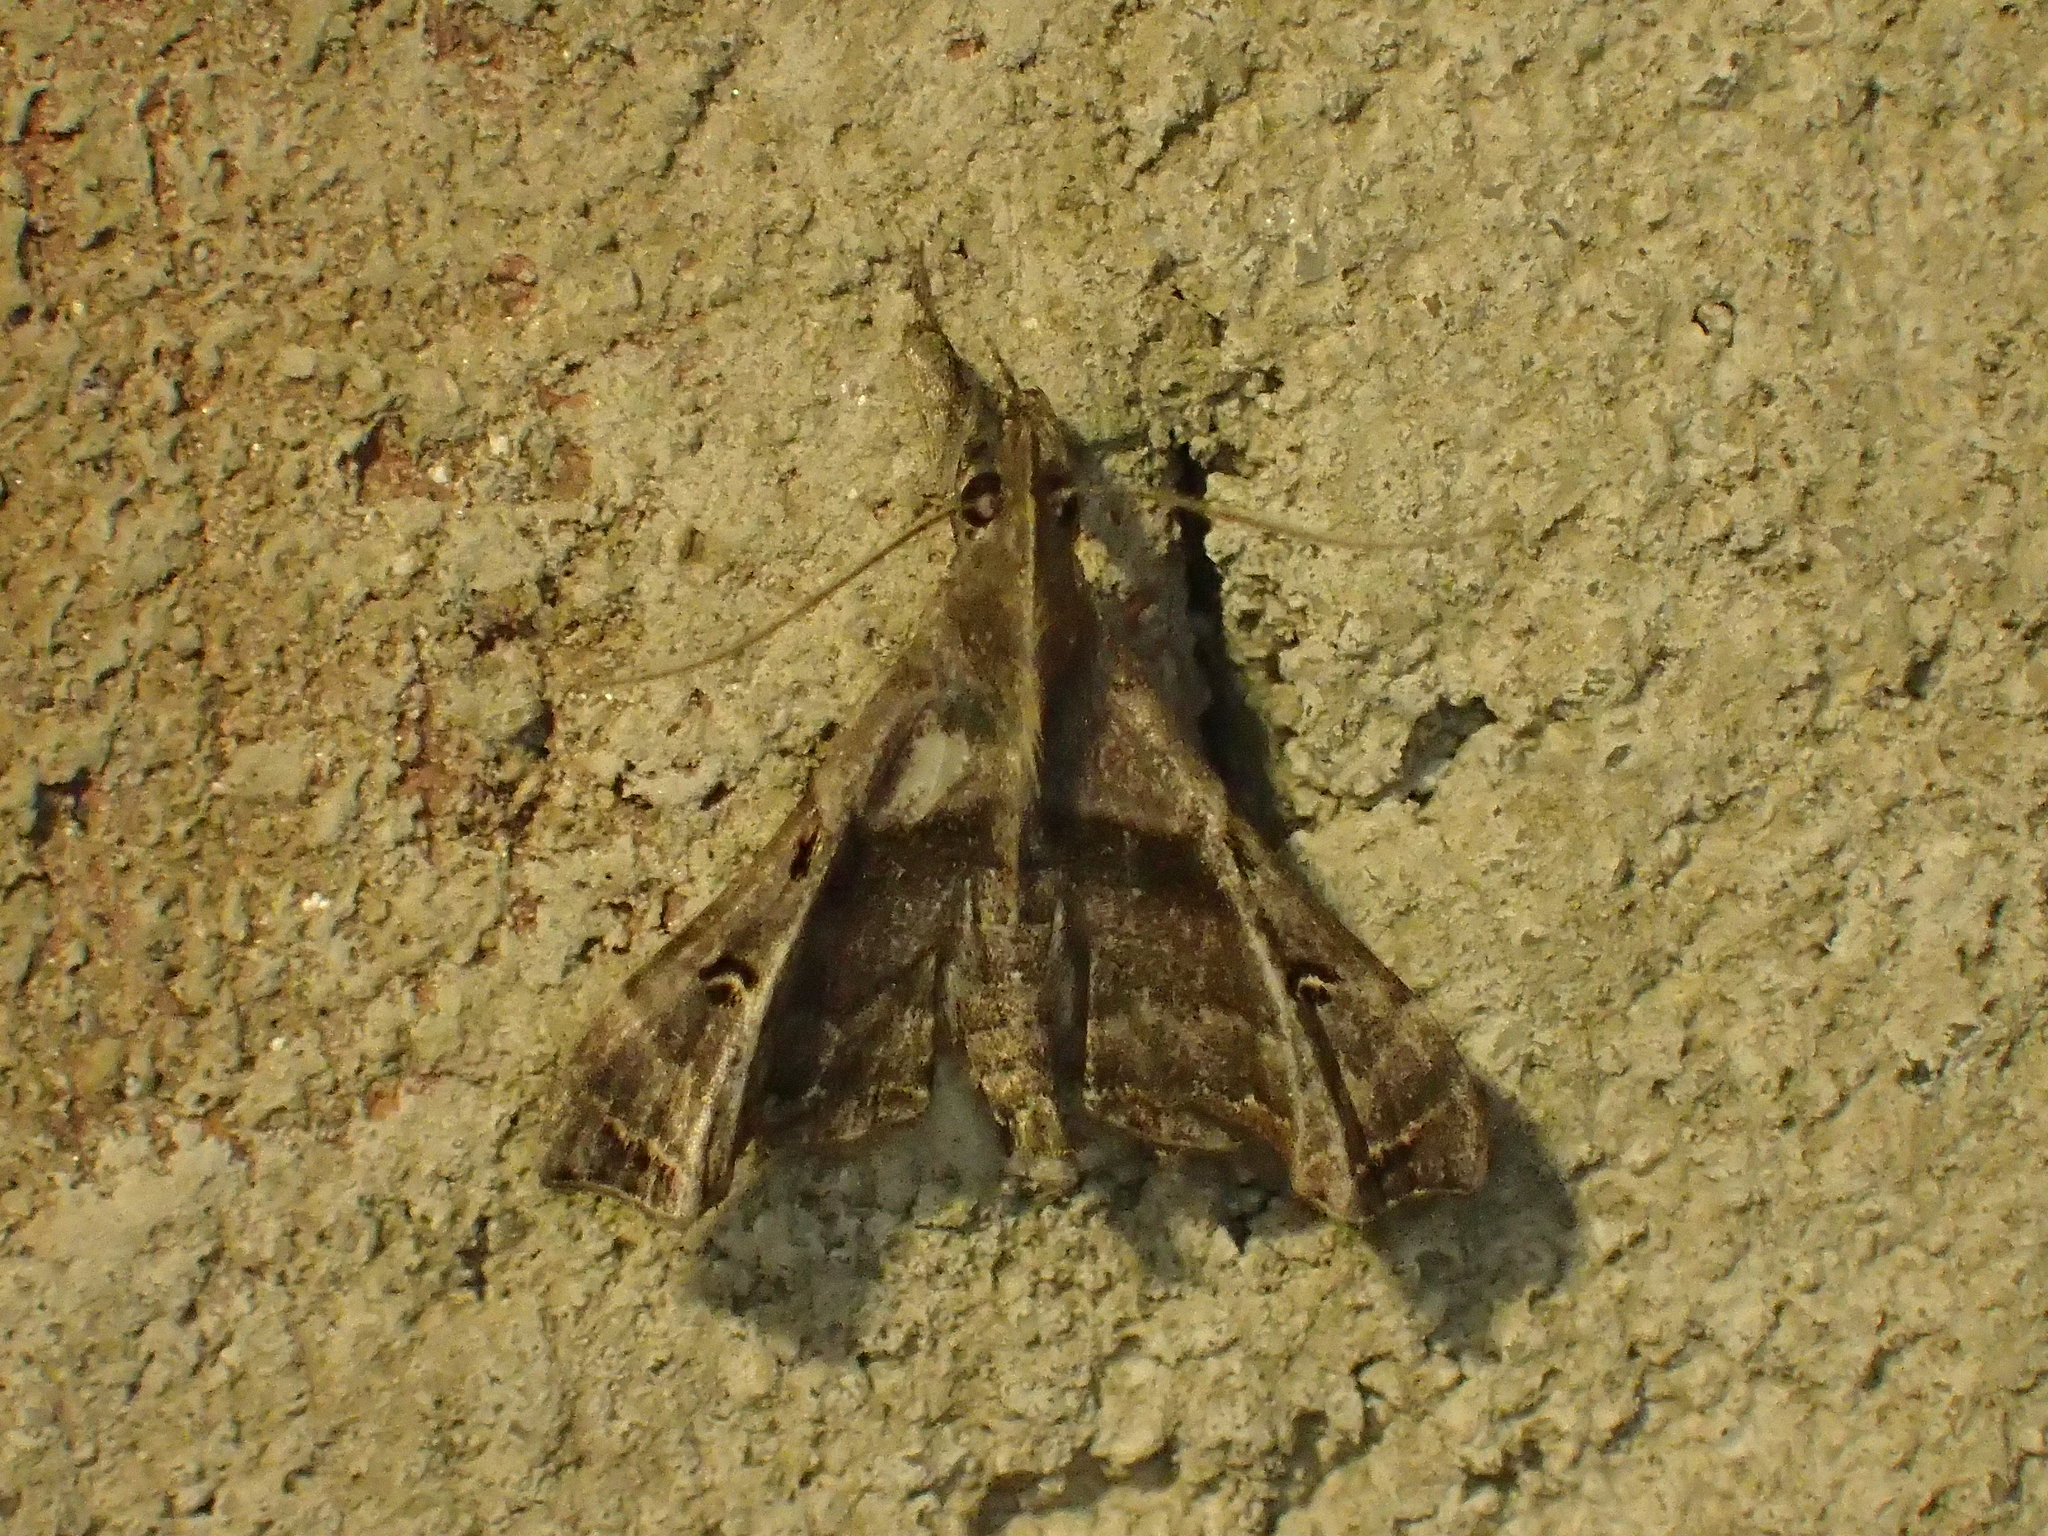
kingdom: Animalia
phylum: Arthropoda
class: Insecta
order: Lepidoptera
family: Erebidae
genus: Palthis
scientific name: Palthis asopialis
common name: Faint-spotted palthis moth
